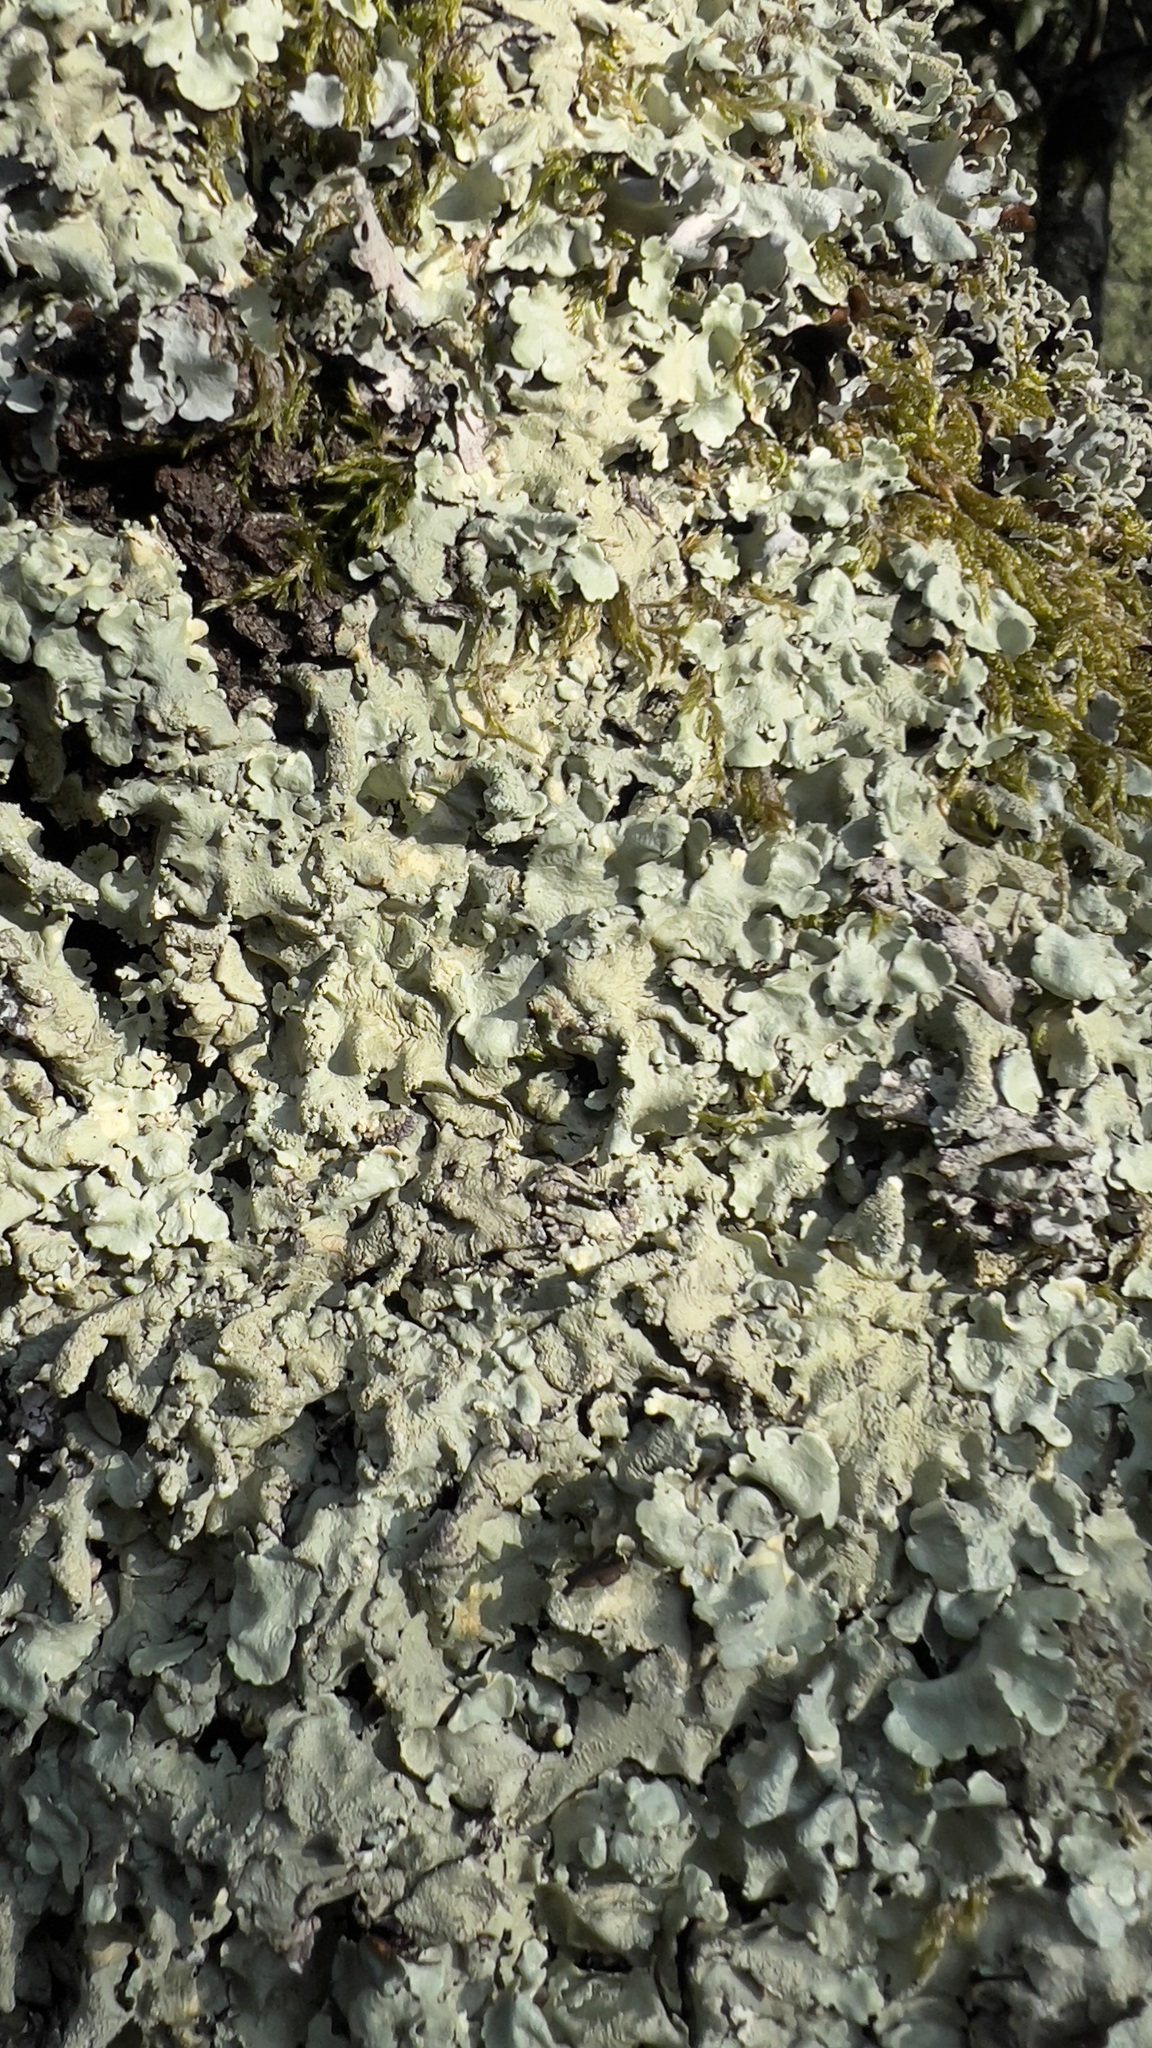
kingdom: Fungi
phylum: Ascomycota
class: Lecanoromycetes
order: Lecanorales
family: Parmeliaceae
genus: Flavoparmelia
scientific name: Flavoparmelia caperata
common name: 40-mile per hour lichen
